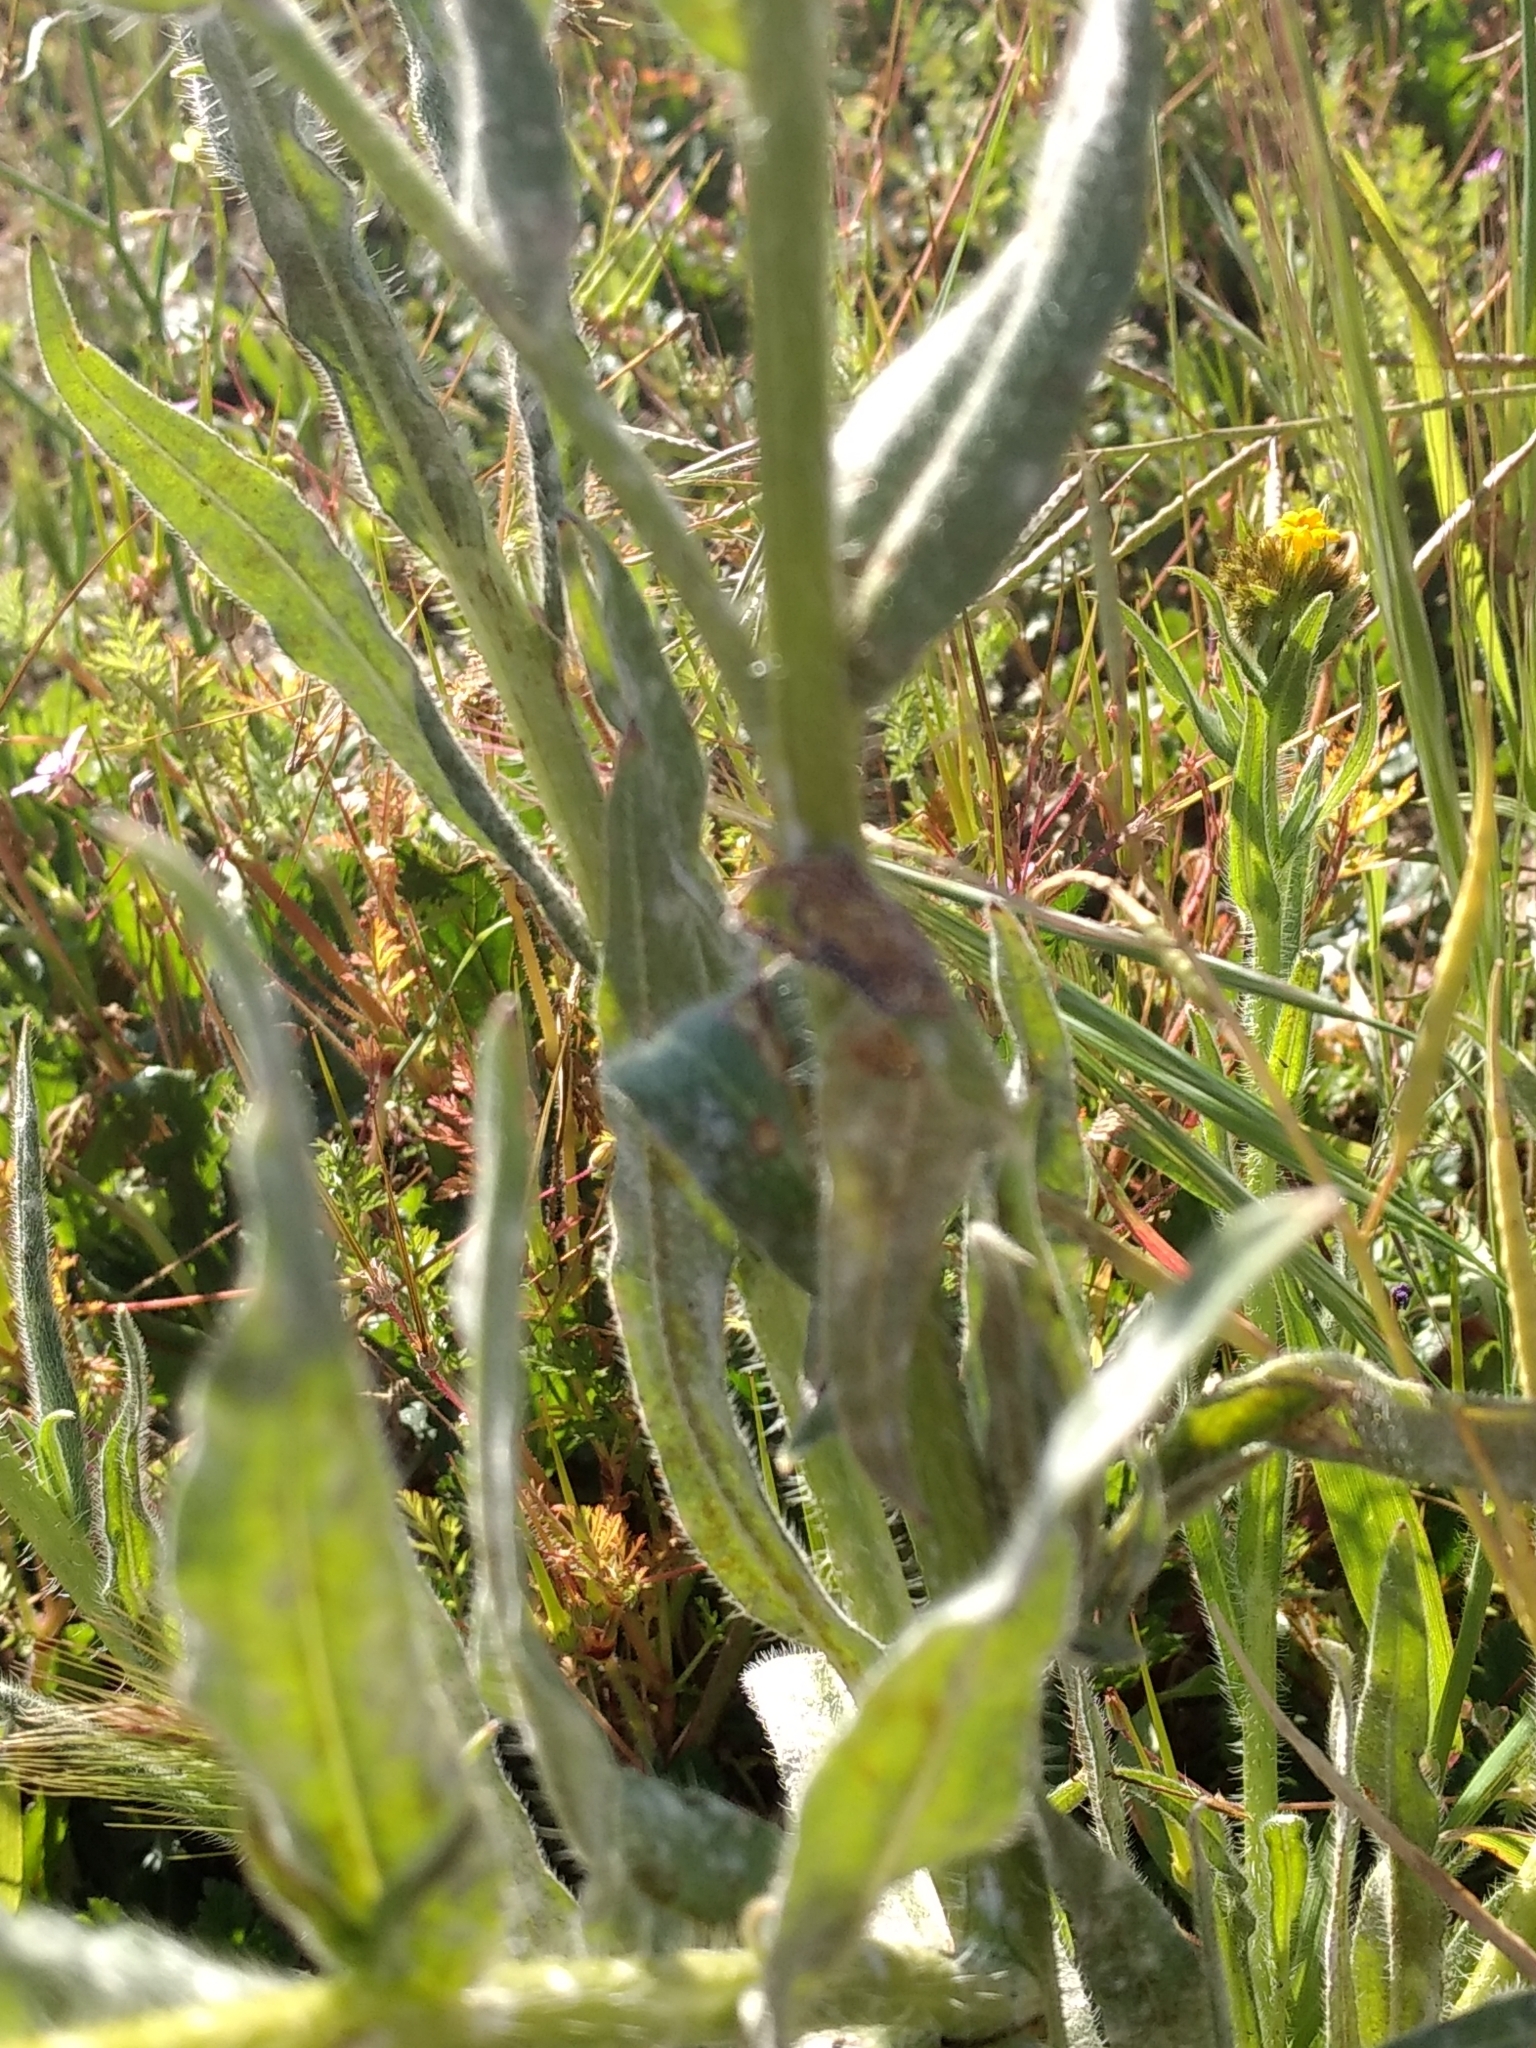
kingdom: Plantae
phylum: Tracheophyta
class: Magnoliopsida
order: Boraginales
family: Boraginaceae
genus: Amsinckia
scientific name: Amsinckia menziesii
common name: Menzies' fiddleneck
